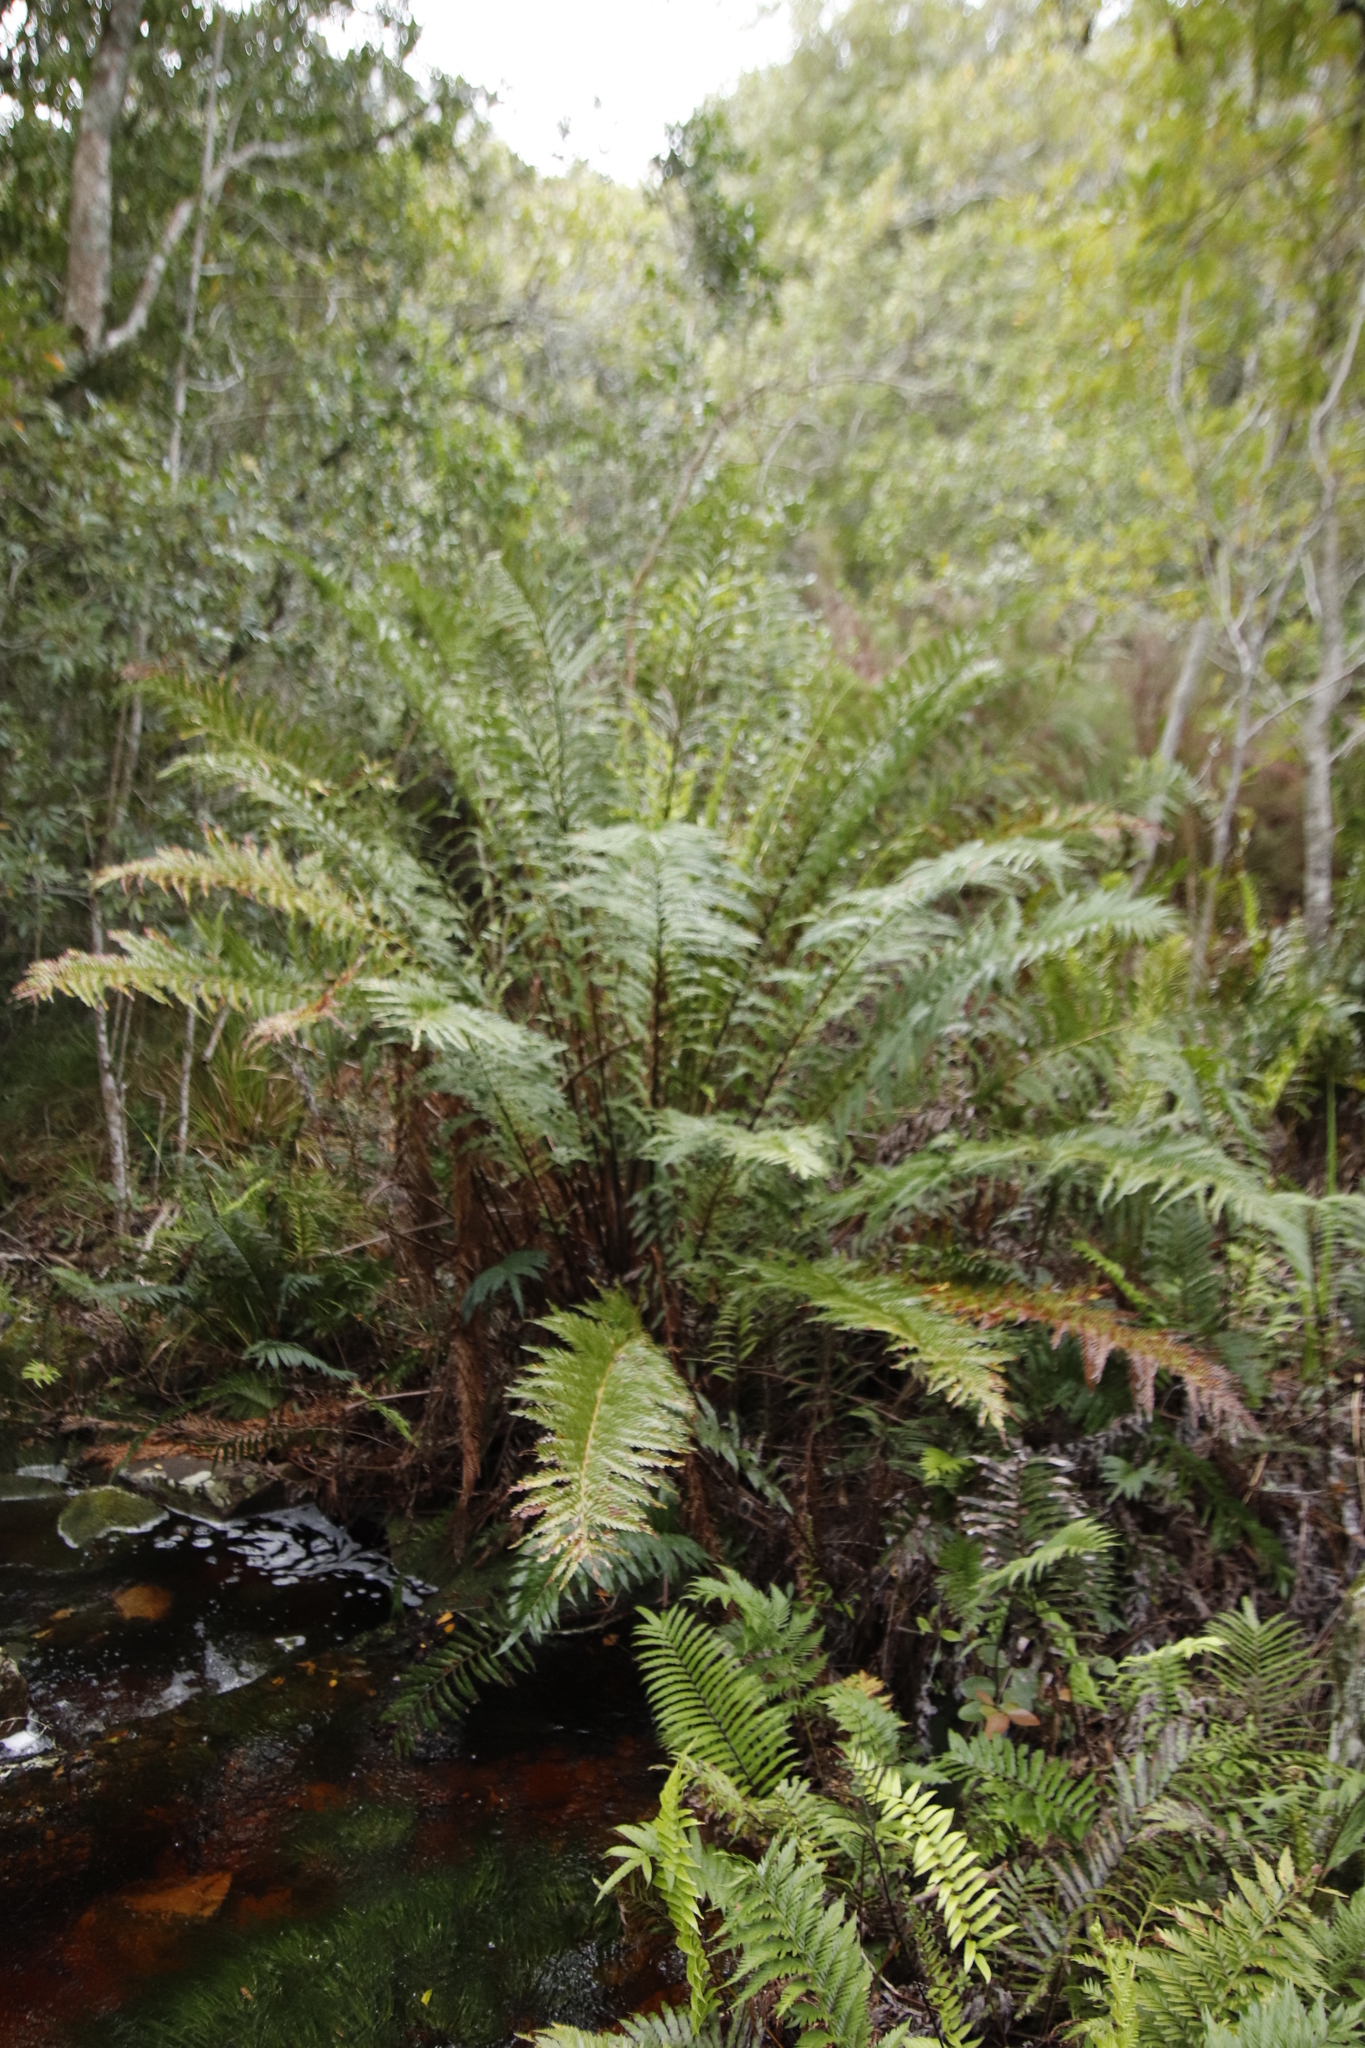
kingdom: Plantae
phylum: Tracheophyta
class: Polypodiopsida
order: Osmundales
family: Osmundaceae
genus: Todea
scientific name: Todea barbara
